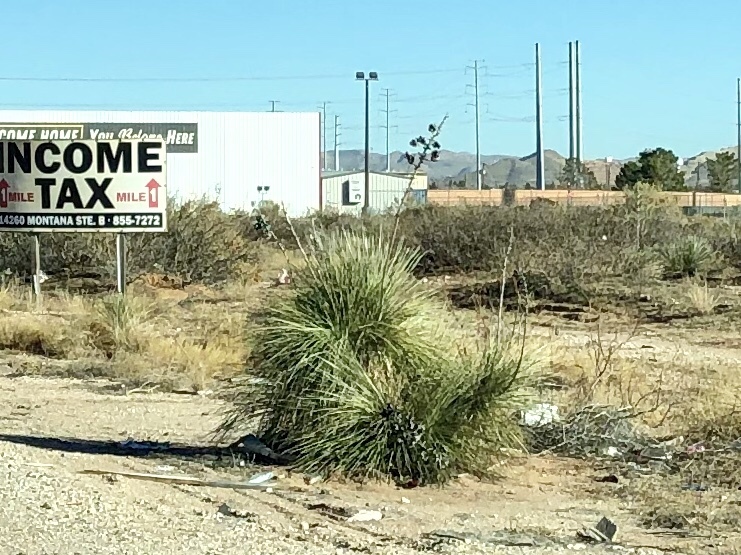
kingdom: Plantae
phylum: Tracheophyta
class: Liliopsida
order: Asparagales
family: Asparagaceae
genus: Yucca
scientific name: Yucca elata
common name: Palmella
